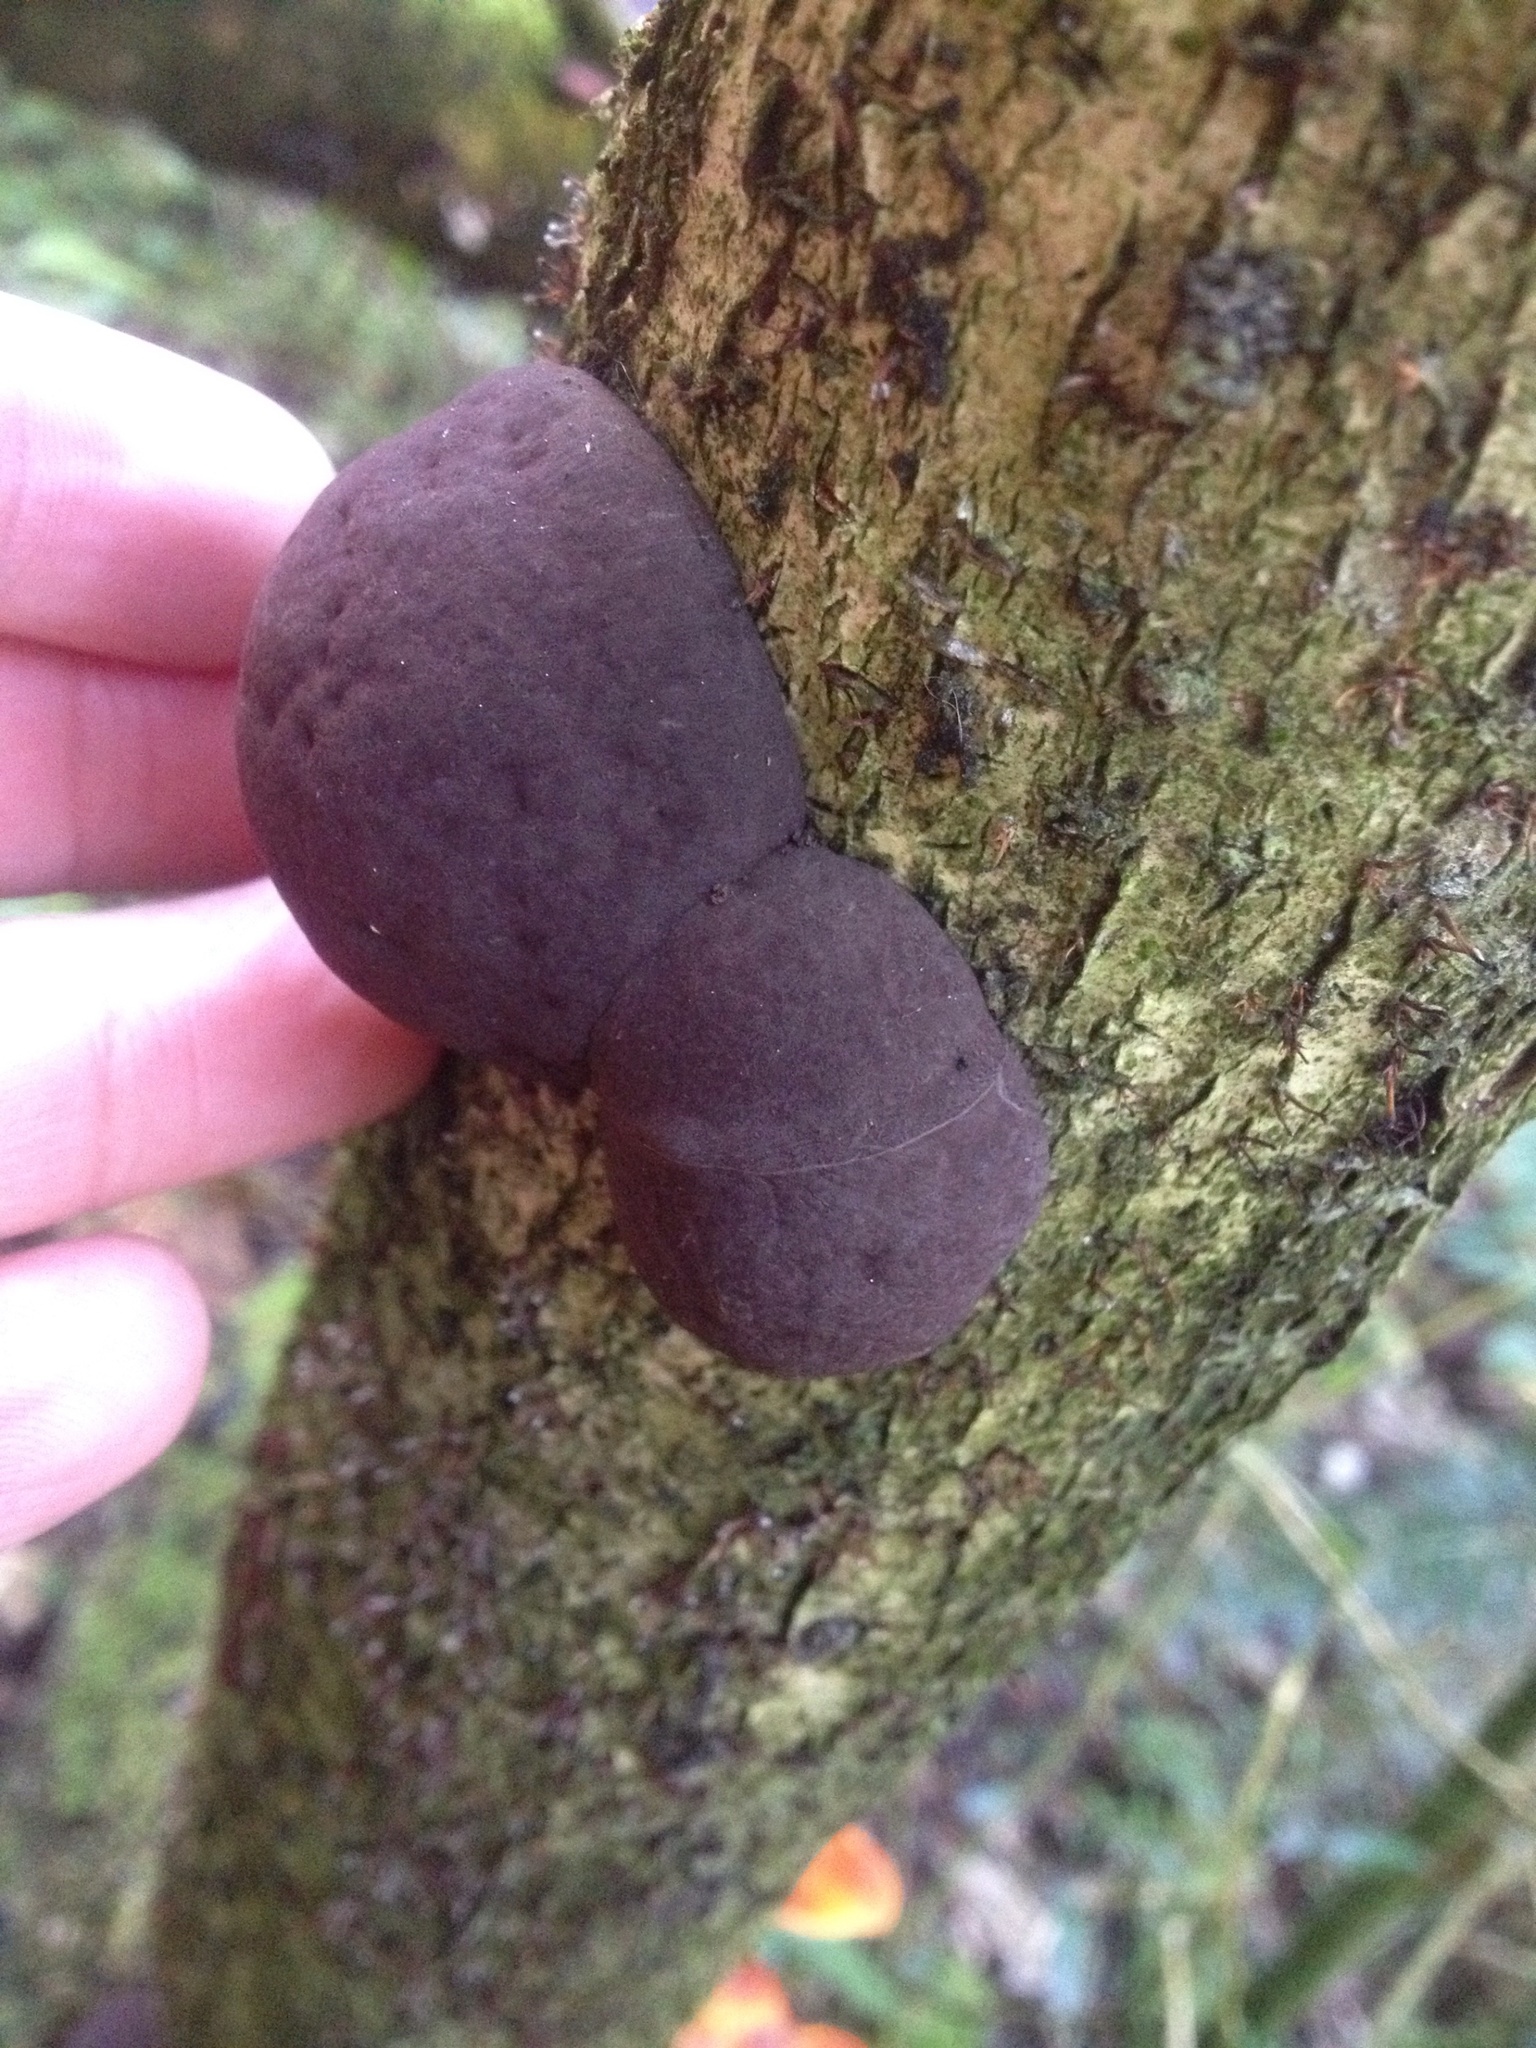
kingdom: Fungi
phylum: Ascomycota
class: Sordariomycetes
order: Xylariales
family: Hypoxylaceae
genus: Daldinia
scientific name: Daldinia
